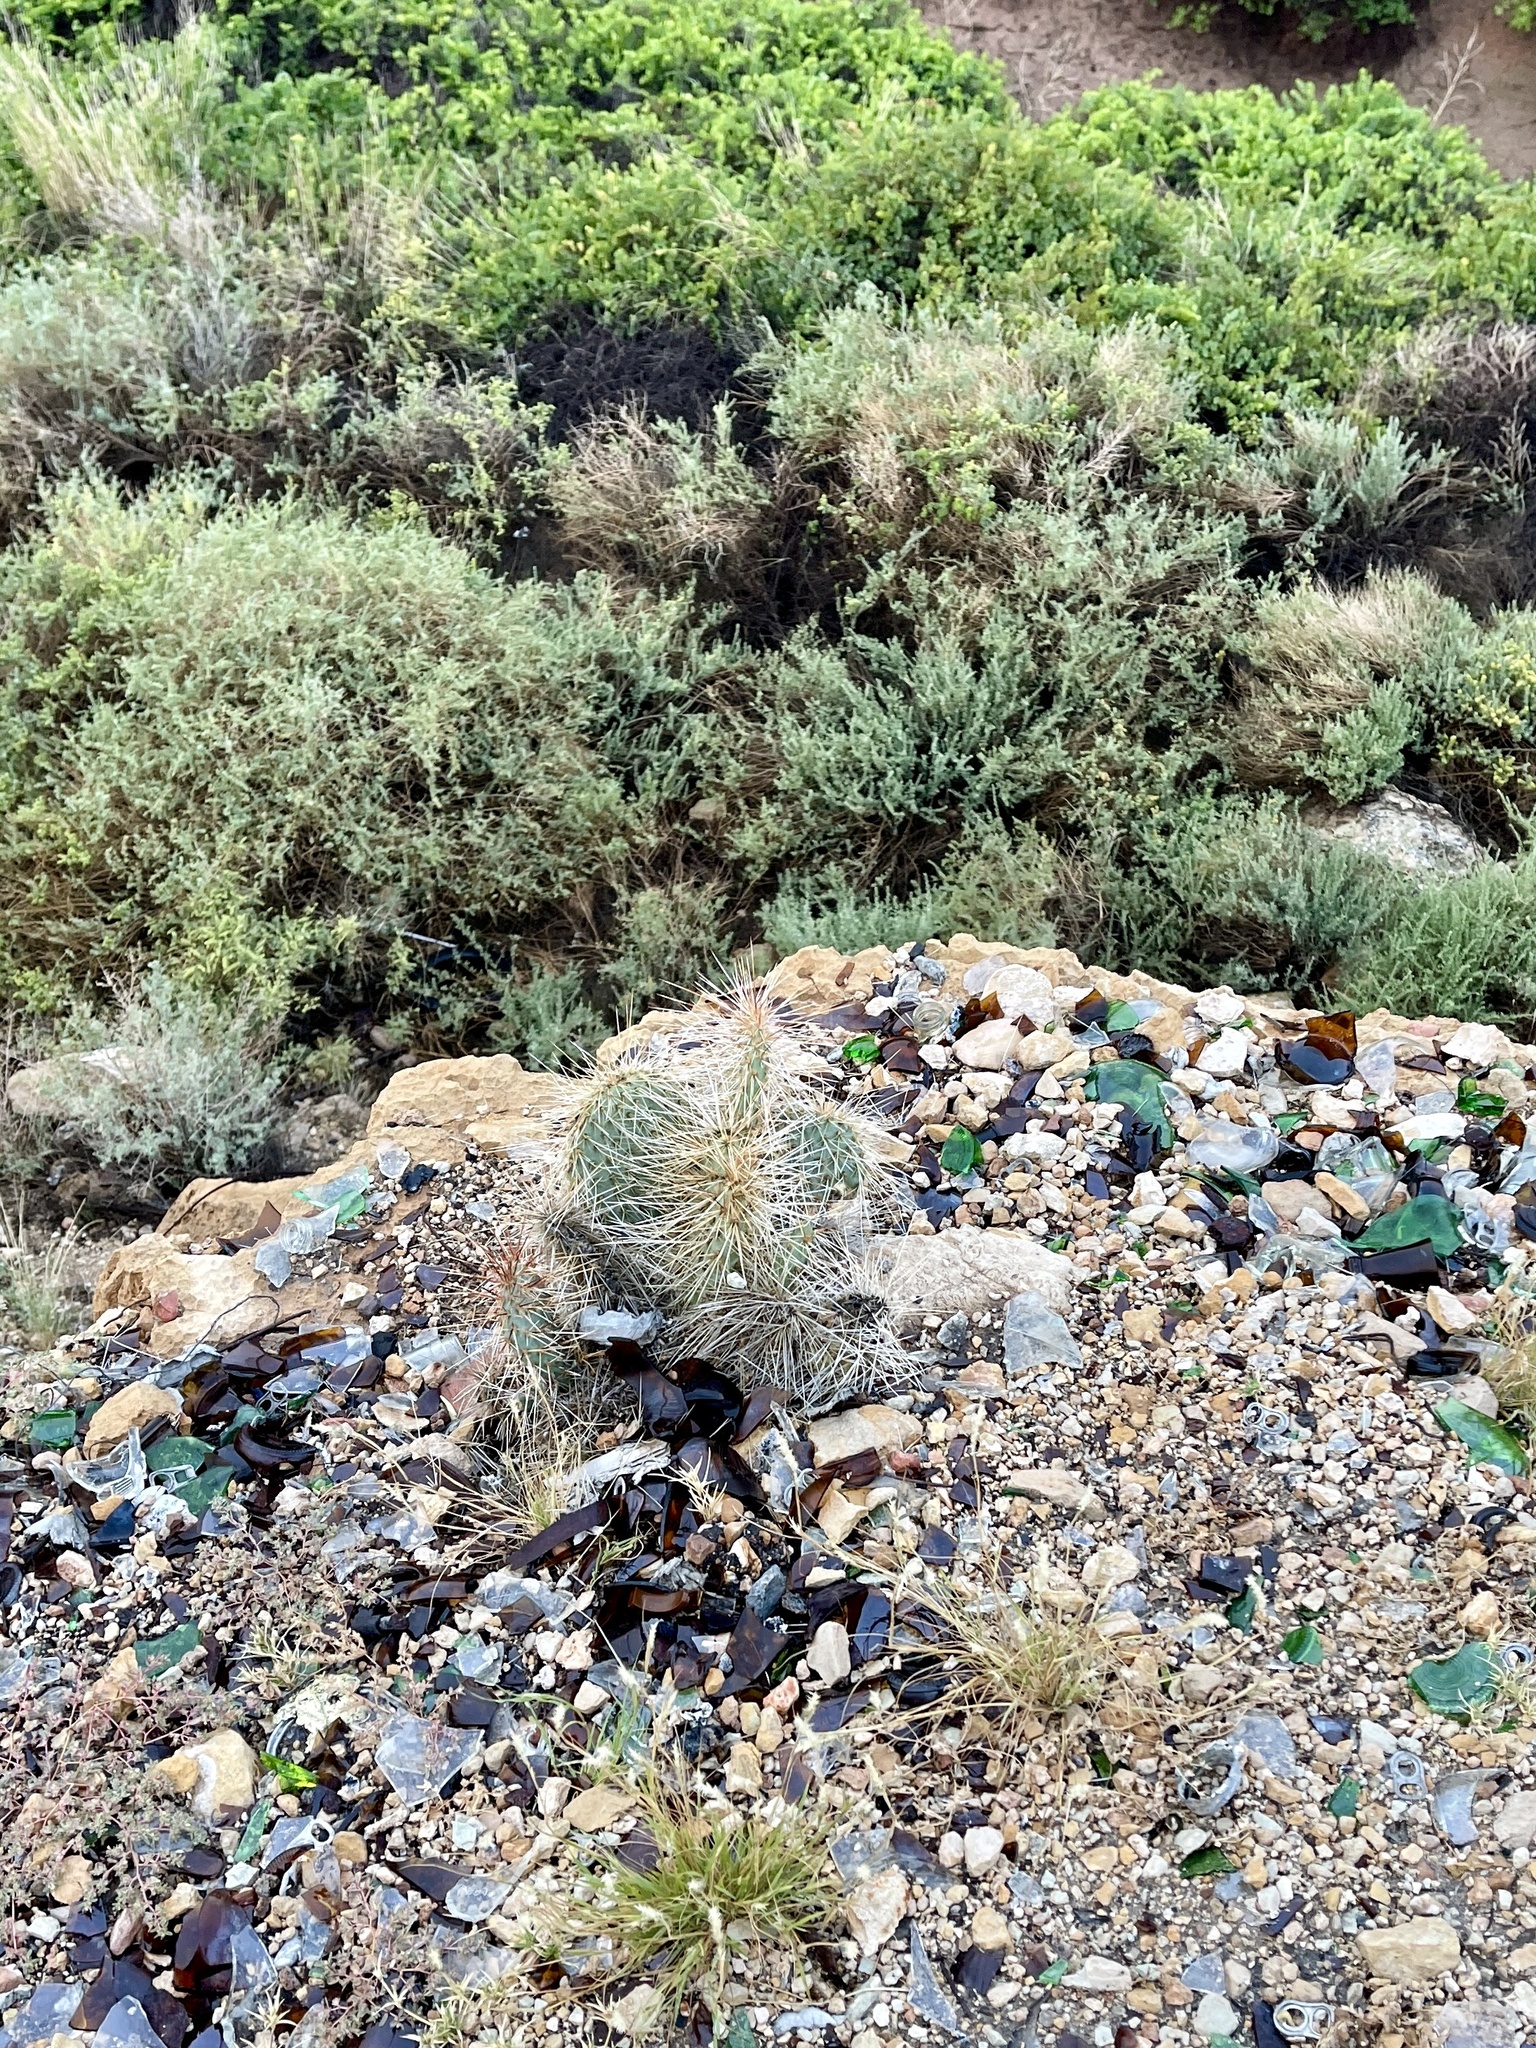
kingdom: Plantae
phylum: Tracheophyta
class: Magnoliopsida
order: Caryophyllales
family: Cactaceae
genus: Opuntia
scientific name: Opuntia polyacantha
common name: Plains prickly-pear
